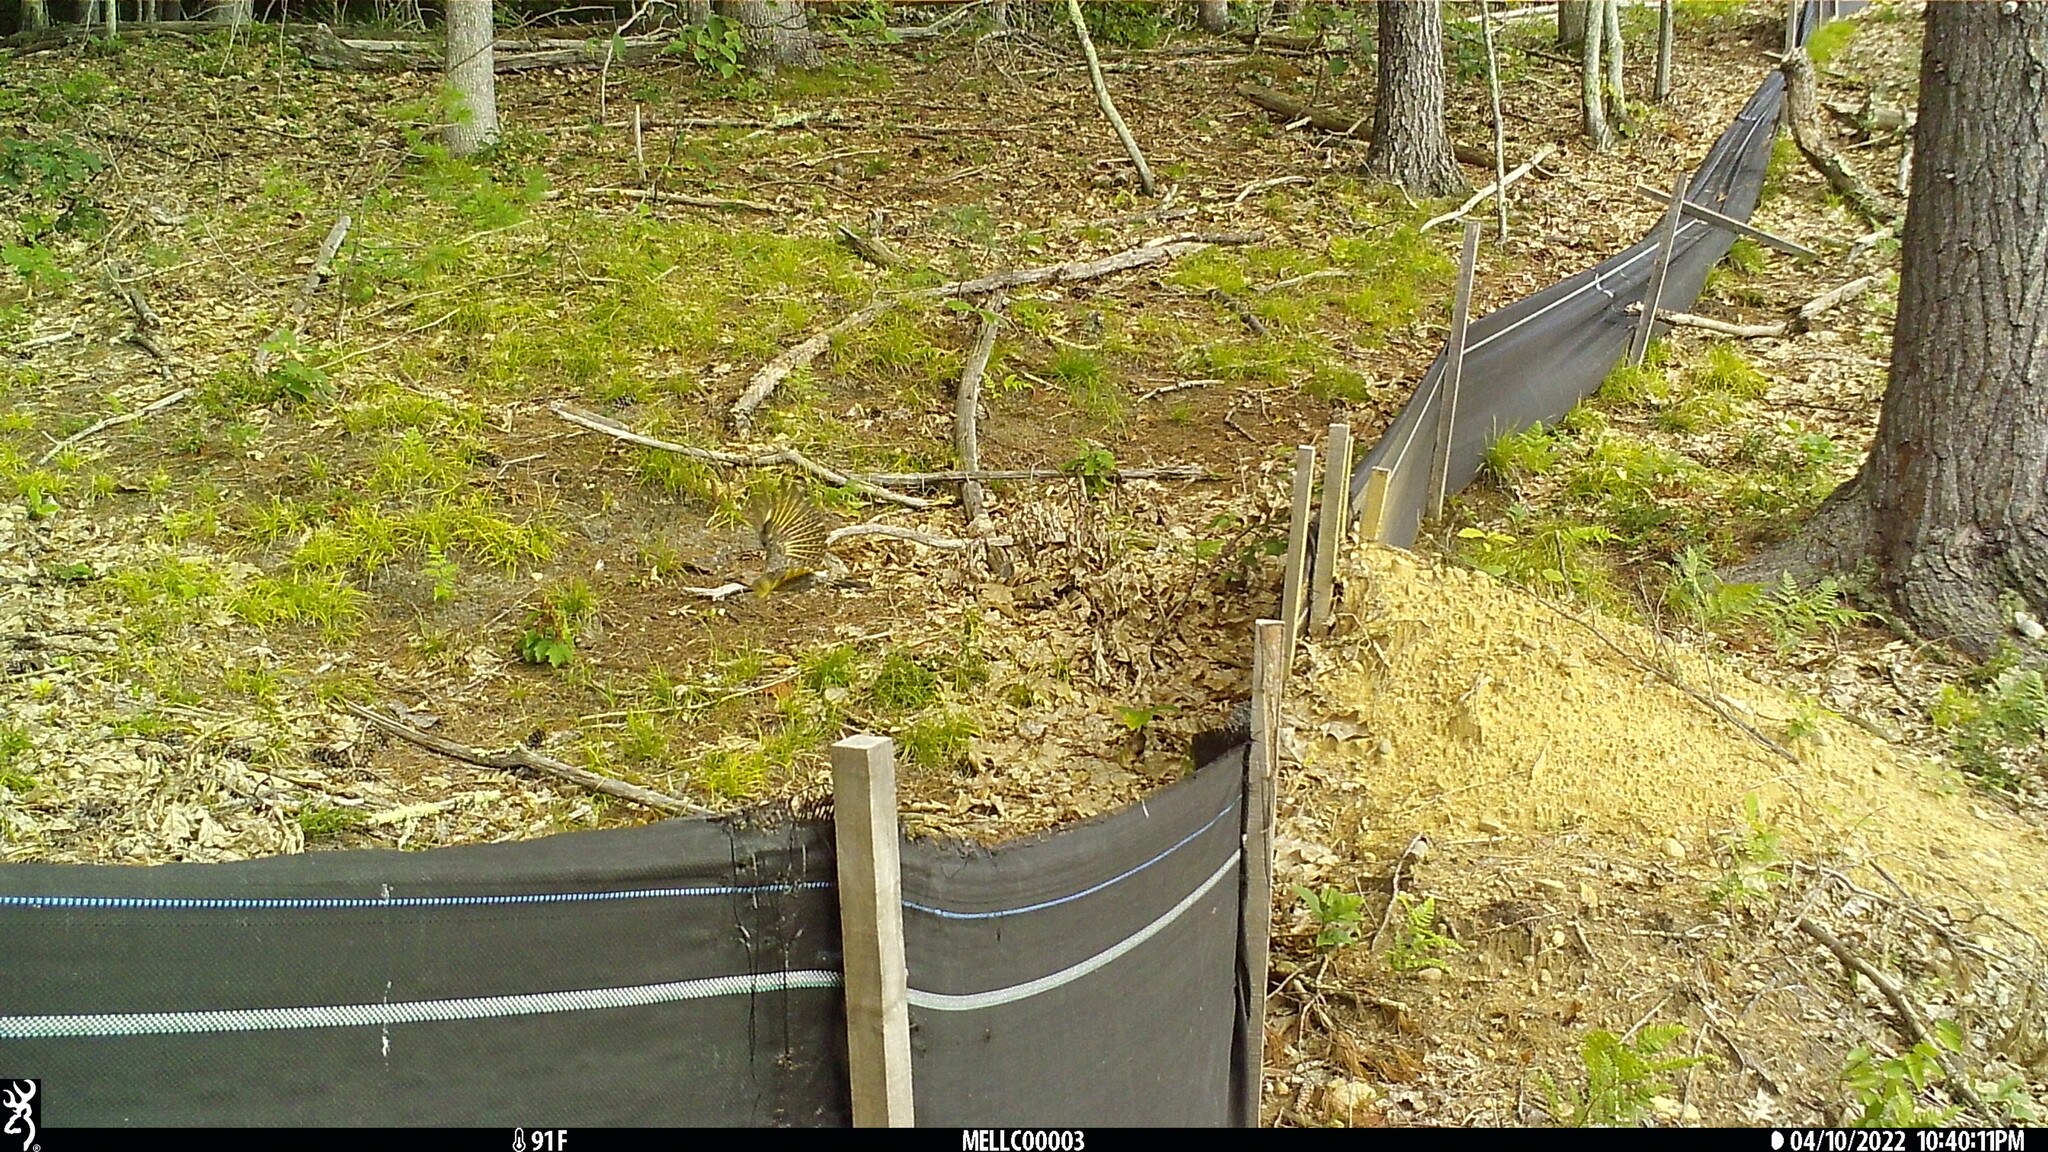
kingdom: Animalia
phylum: Chordata
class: Aves
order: Piciformes
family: Picidae
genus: Colaptes
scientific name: Colaptes auratus
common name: Northern flicker
